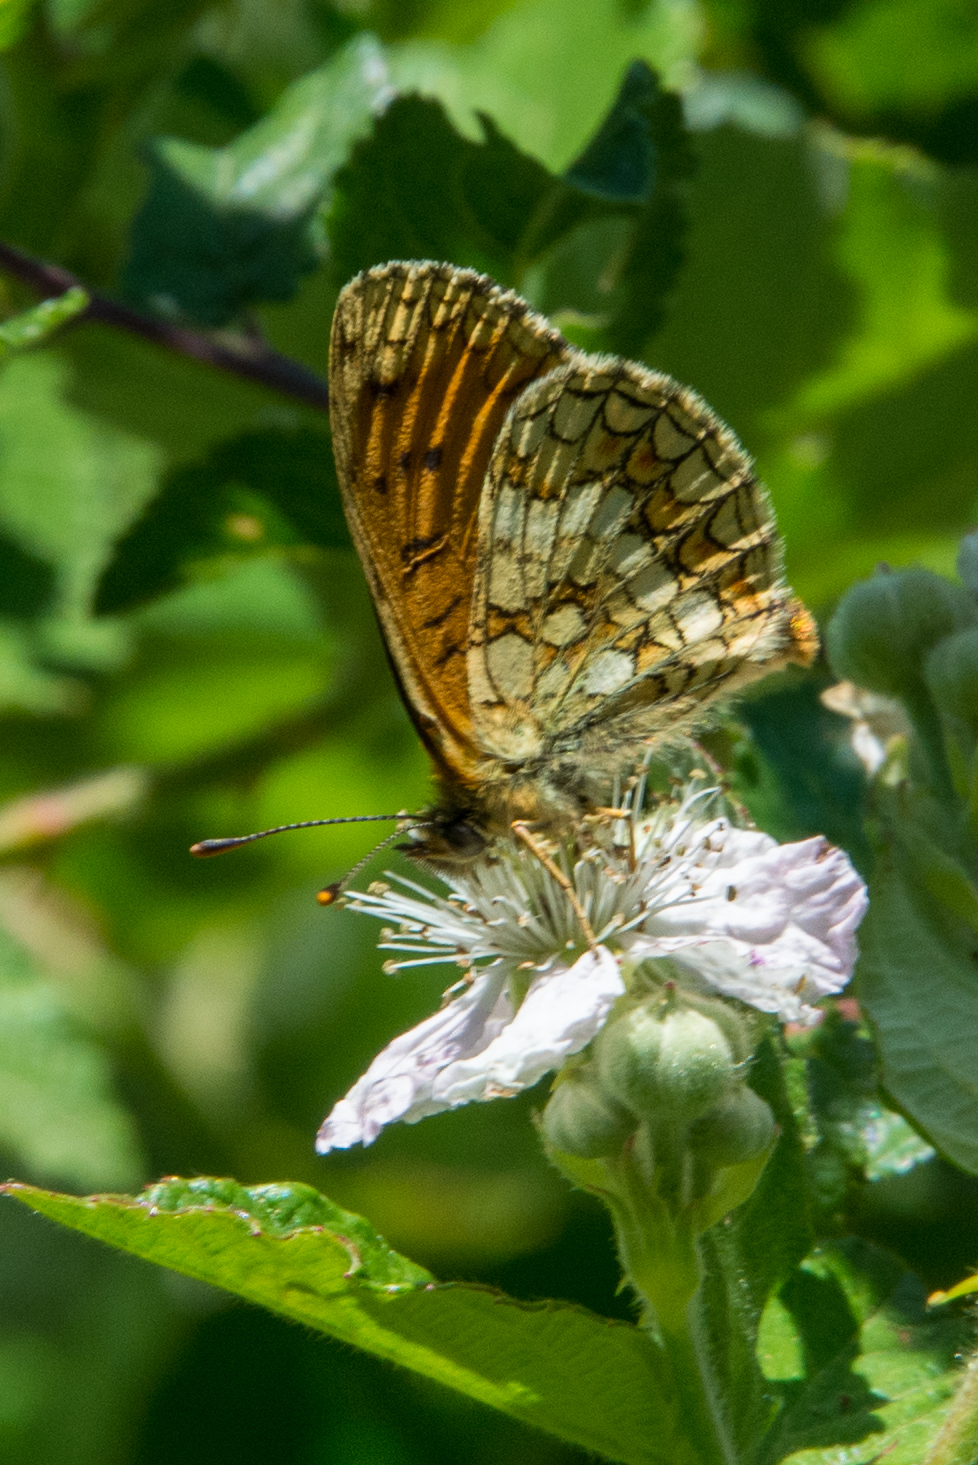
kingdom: Animalia
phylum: Arthropoda
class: Insecta
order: Lepidoptera
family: Nymphalidae
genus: Mellicta
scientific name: Mellicta athalia
